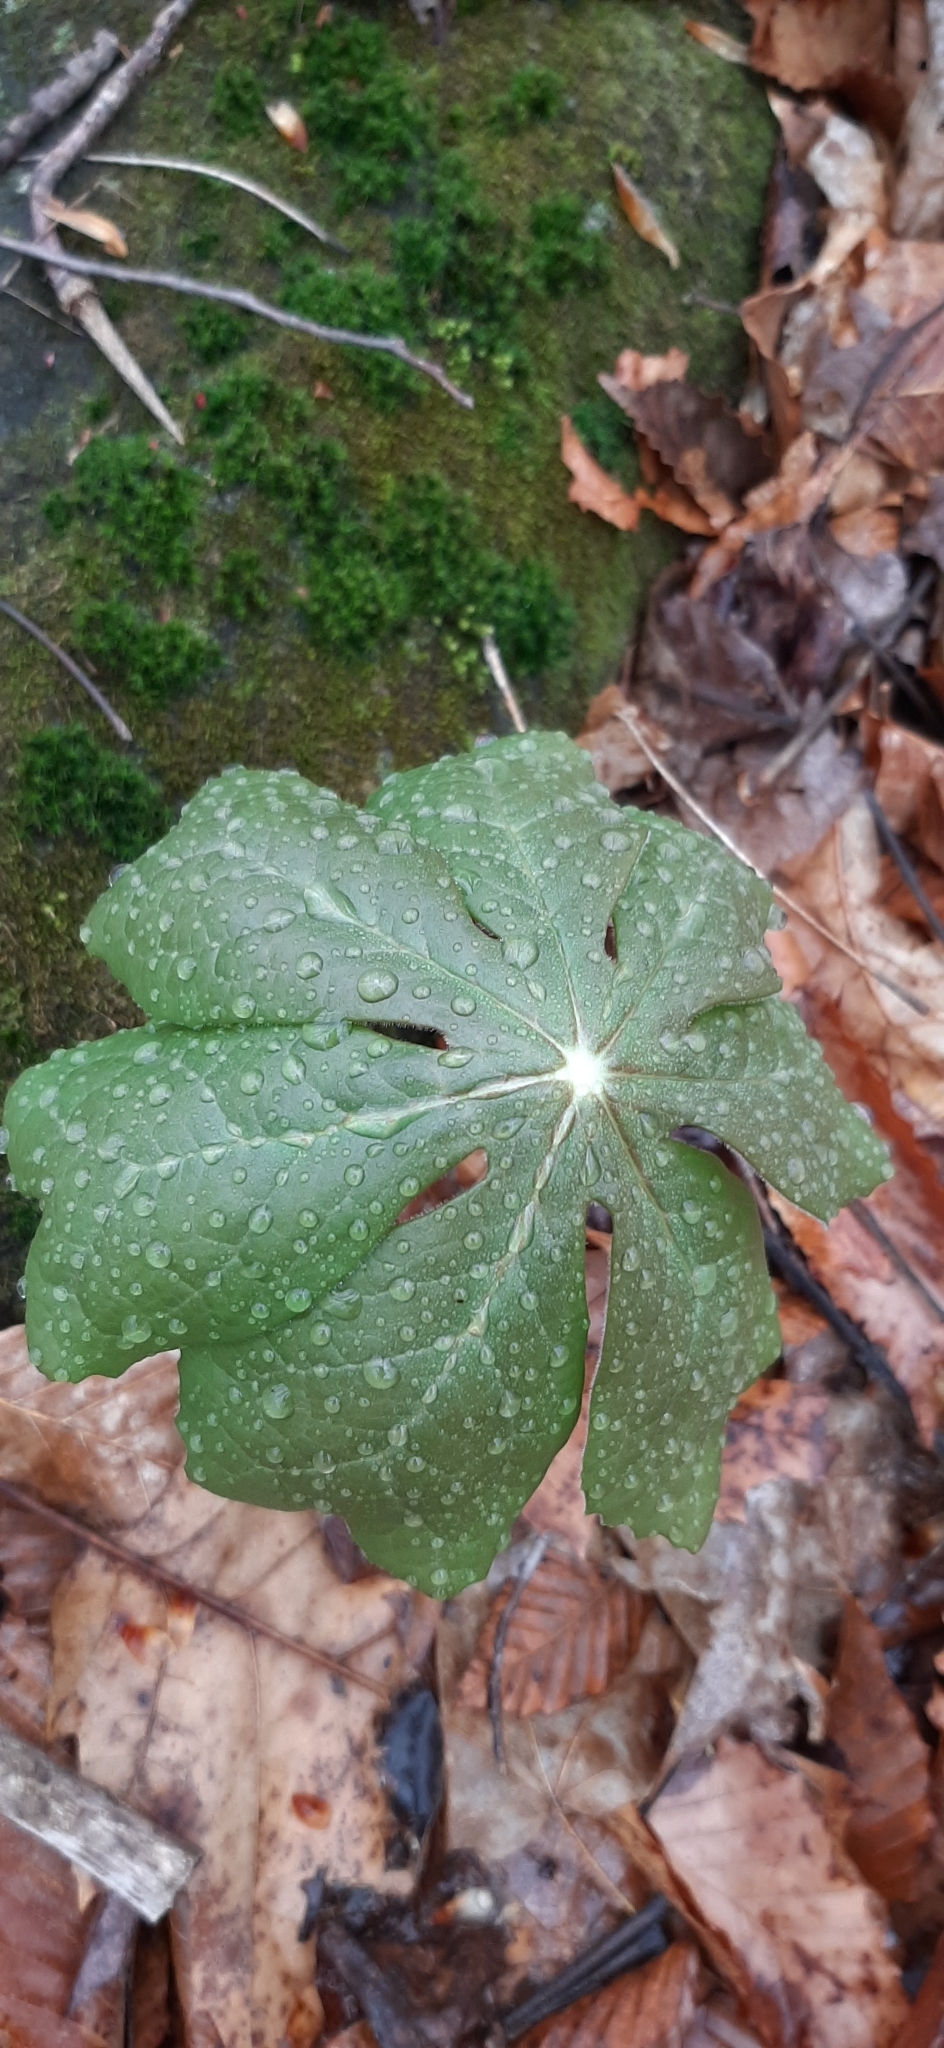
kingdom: Plantae
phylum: Tracheophyta
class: Magnoliopsida
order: Ranunculales
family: Berberidaceae
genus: Podophyllum
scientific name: Podophyllum peltatum
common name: Wild mandrake
